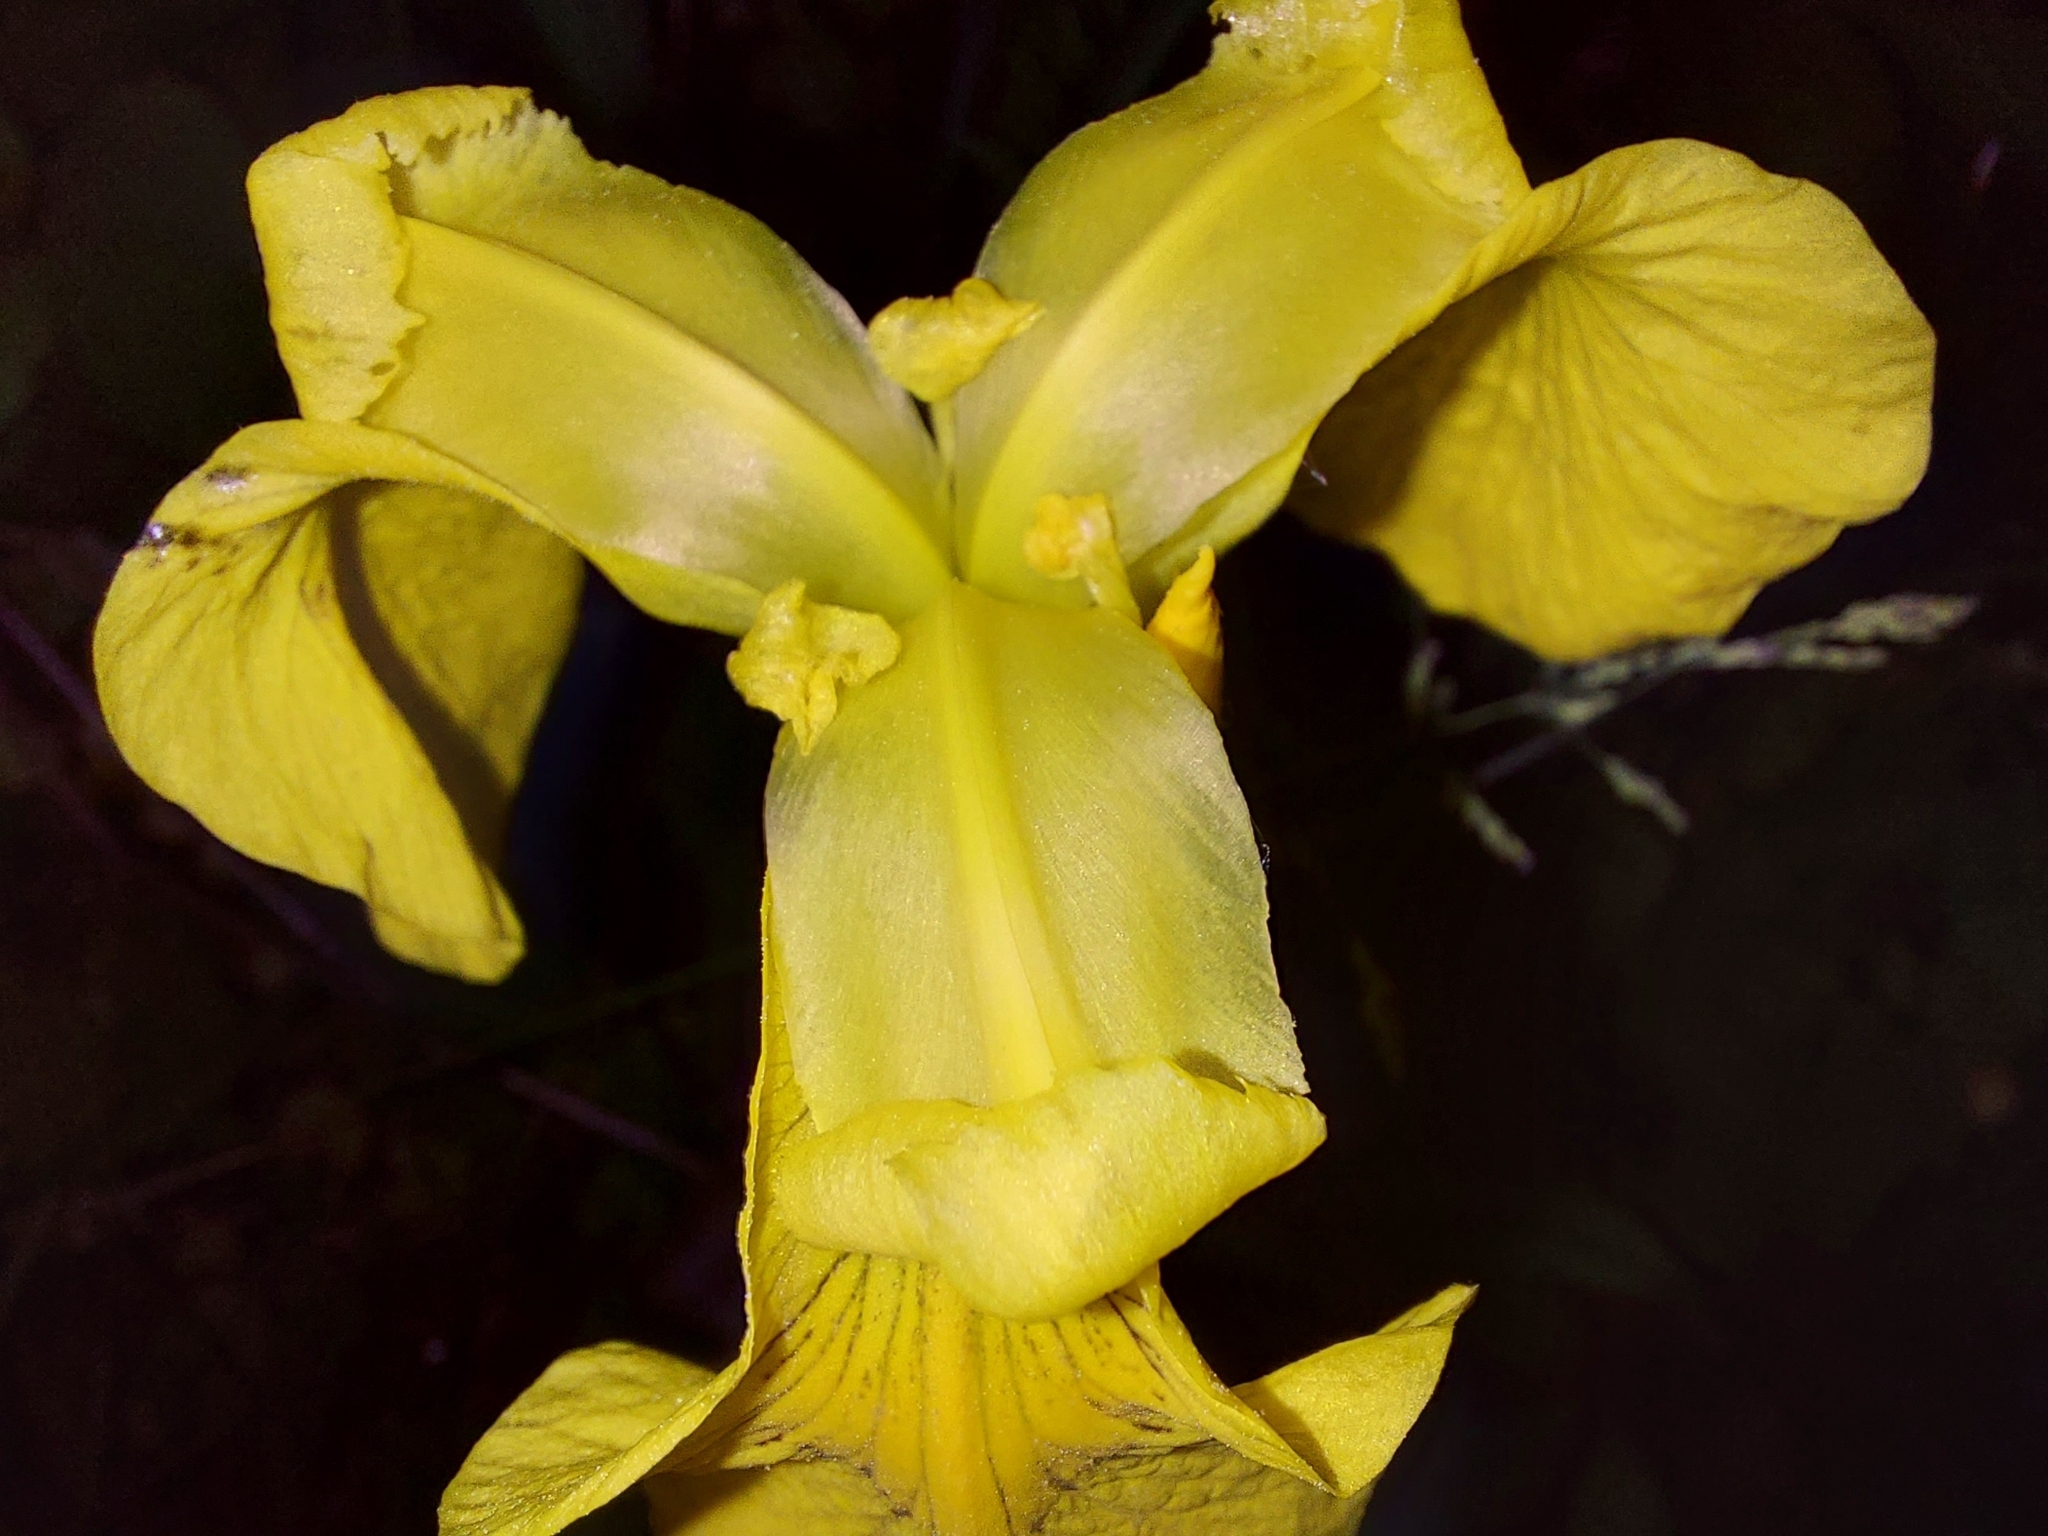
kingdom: Plantae
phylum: Tracheophyta
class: Liliopsida
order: Asparagales
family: Iridaceae
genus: Iris
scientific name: Iris pseudacorus
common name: Yellow flag
